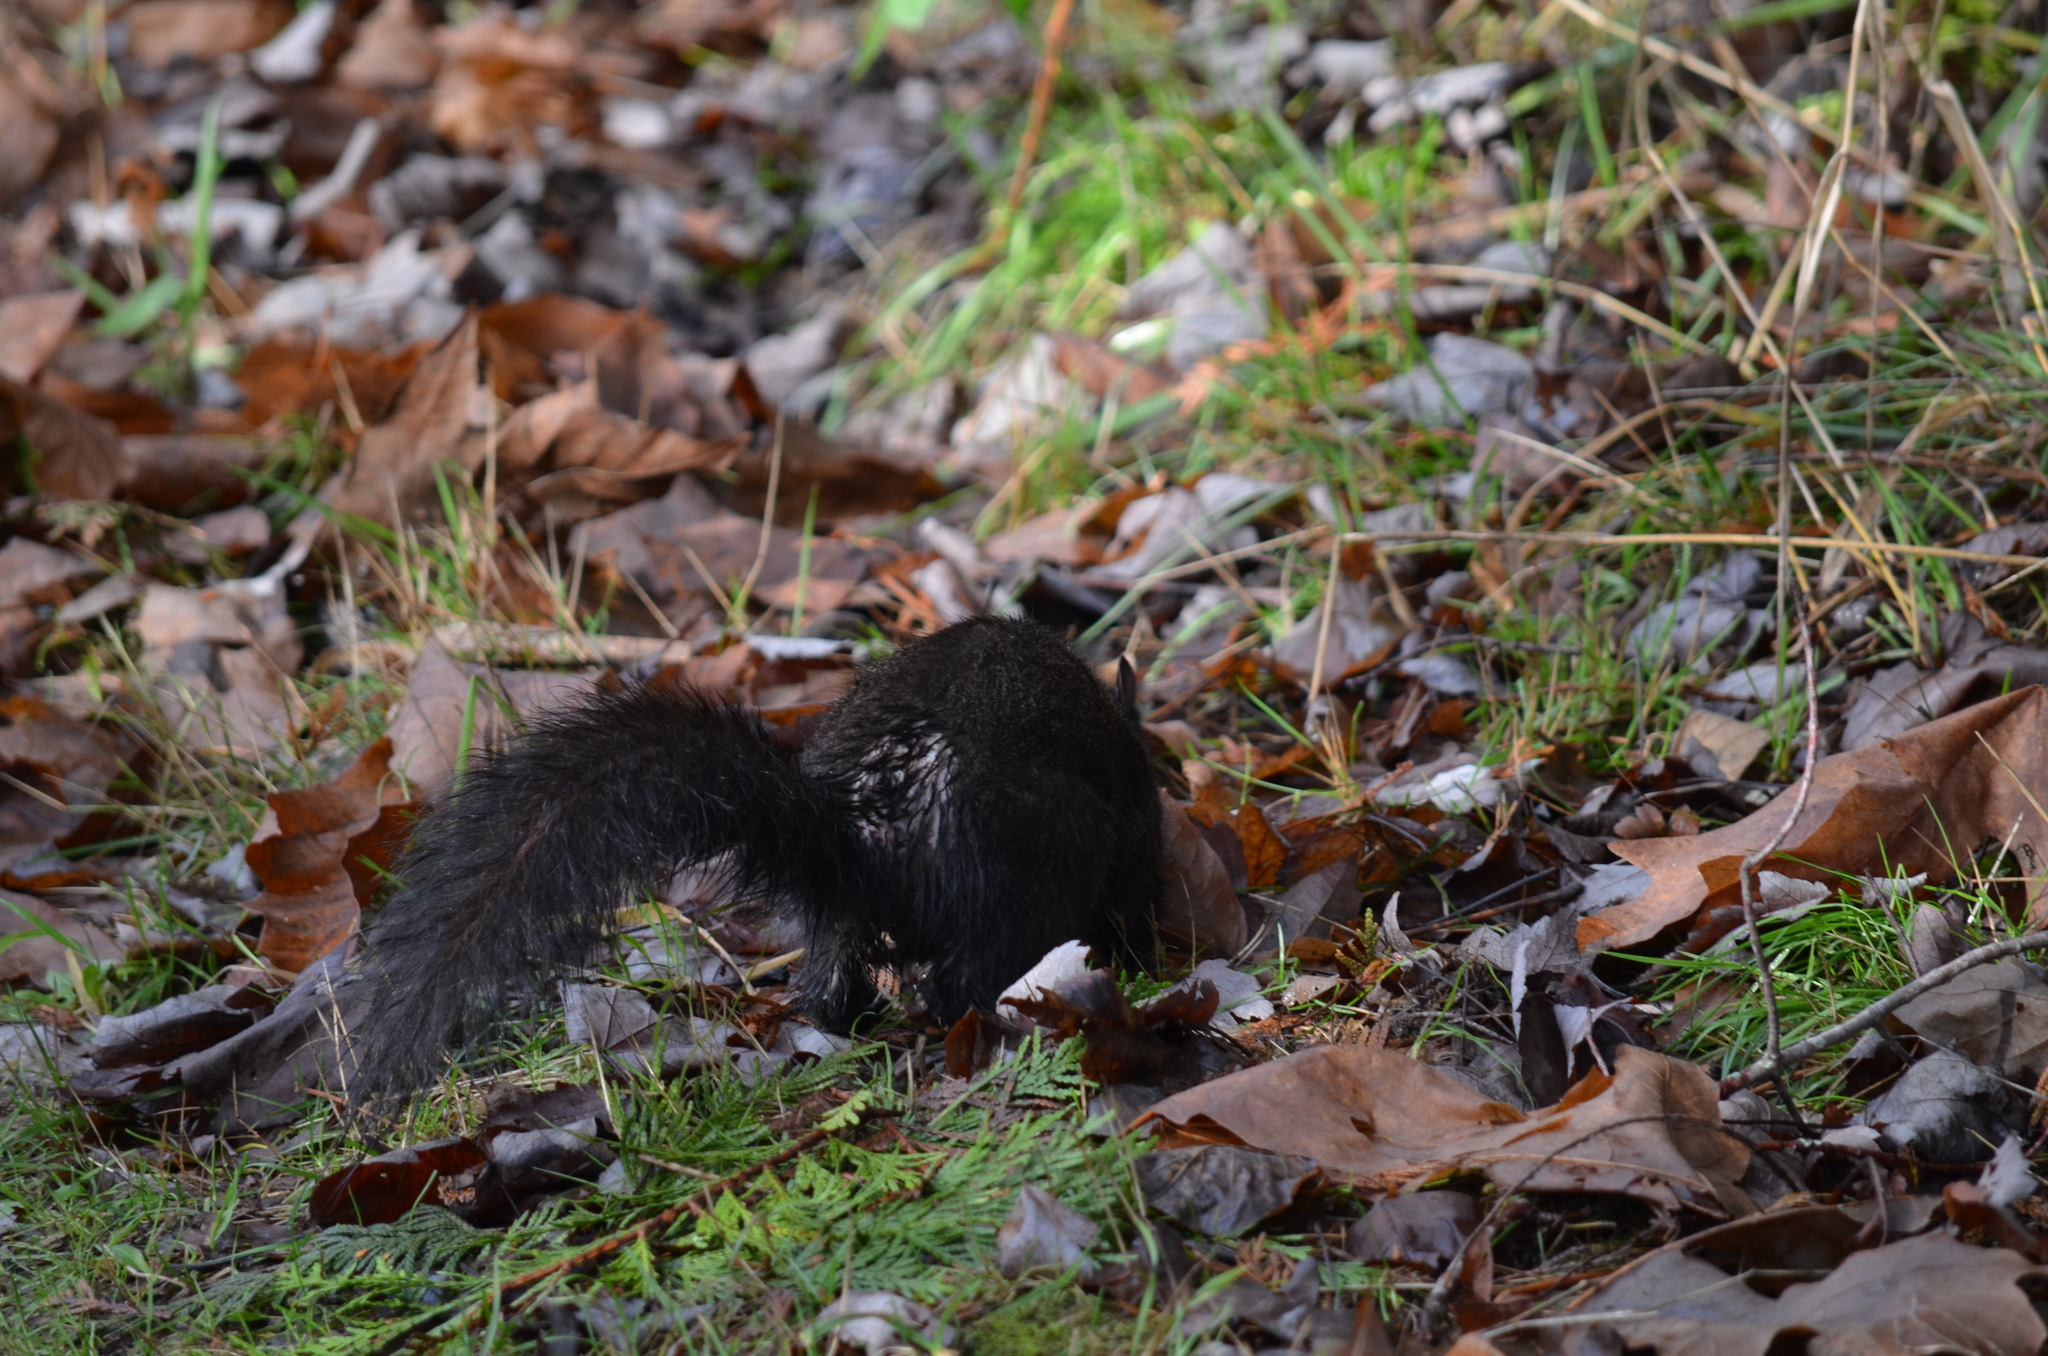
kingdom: Animalia
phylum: Chordata
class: Mammalia
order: Rodentia
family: Sciuridae
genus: Sciurus
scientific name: Sciurus carolinensis
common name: Eastern gray squirrel
